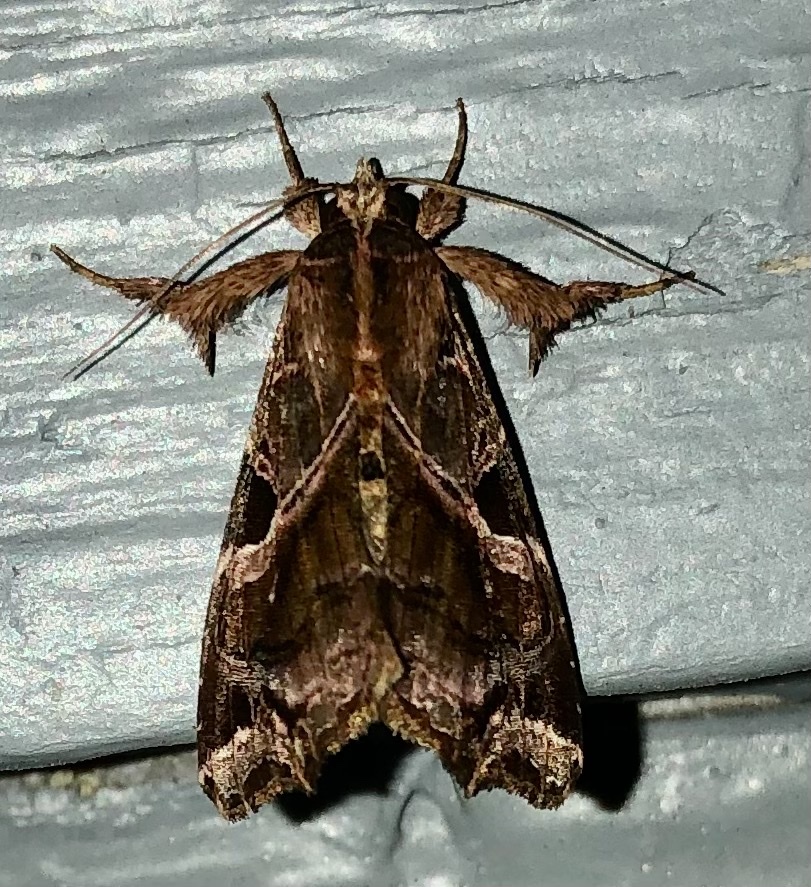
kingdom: Animalia
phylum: Arthropoda
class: Insecta
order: Lepidoptera
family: Noctuidae
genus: Callopistria
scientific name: Callopistria floridensis
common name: Florida fern moth
